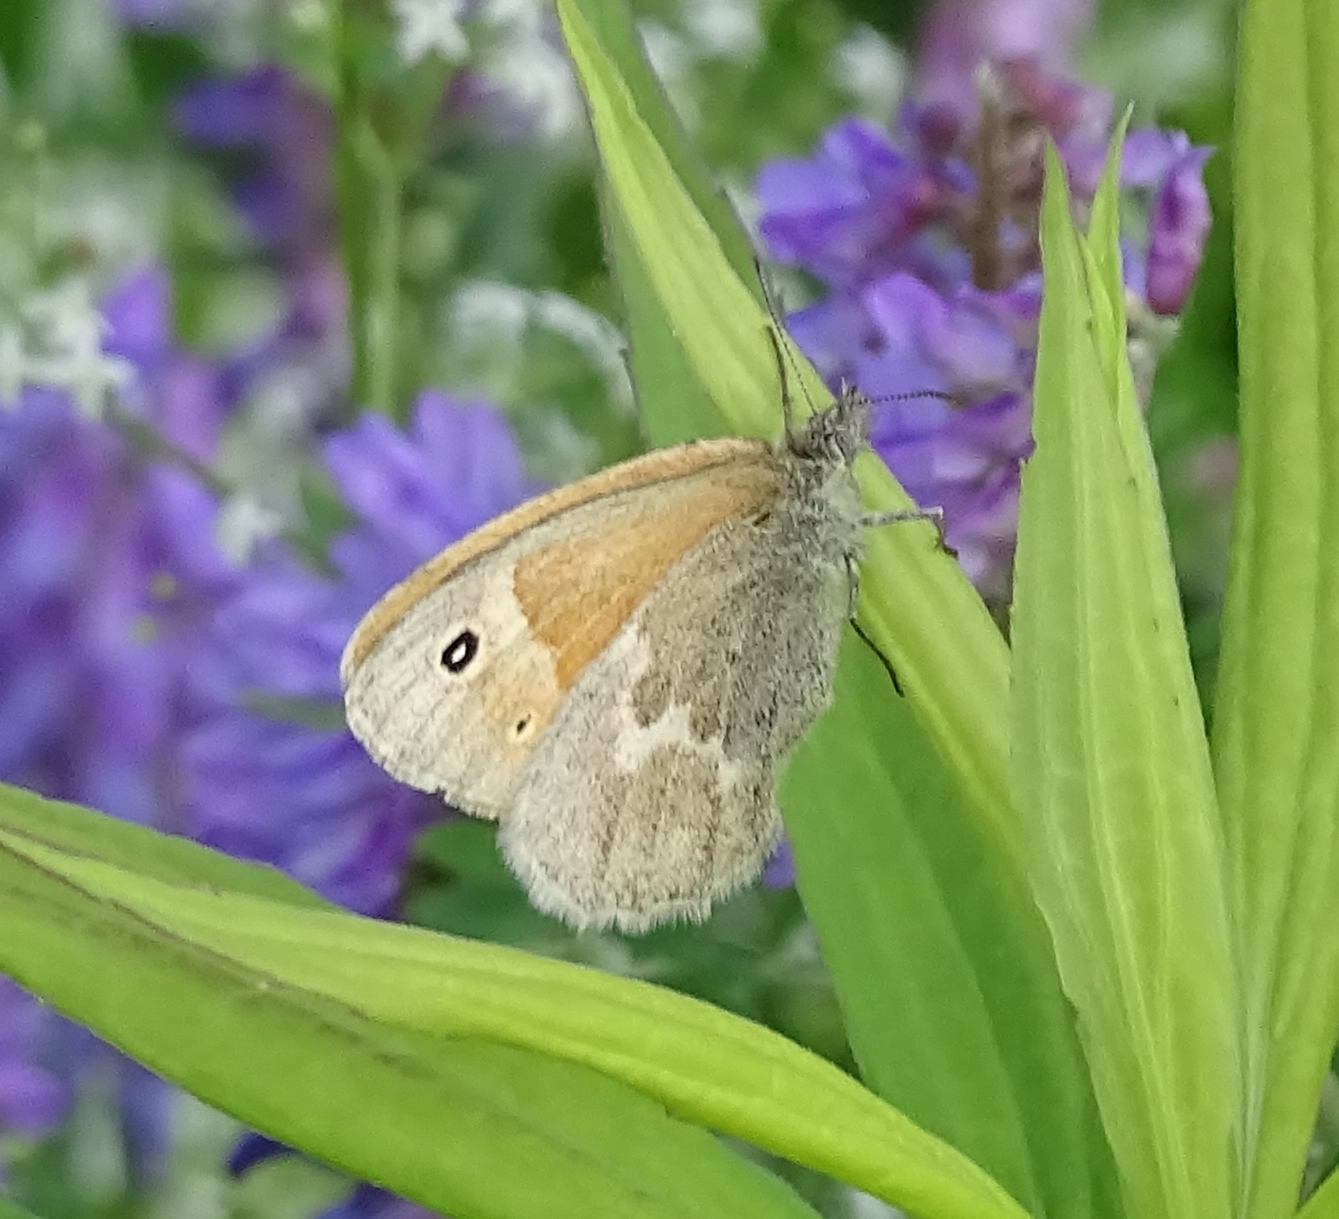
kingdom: Animalia
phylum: Arthropoda
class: Insecta
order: Lepidoptera
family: Nymphalidae
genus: Coenonympha
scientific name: Coenonympha california
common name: Common ringlet
